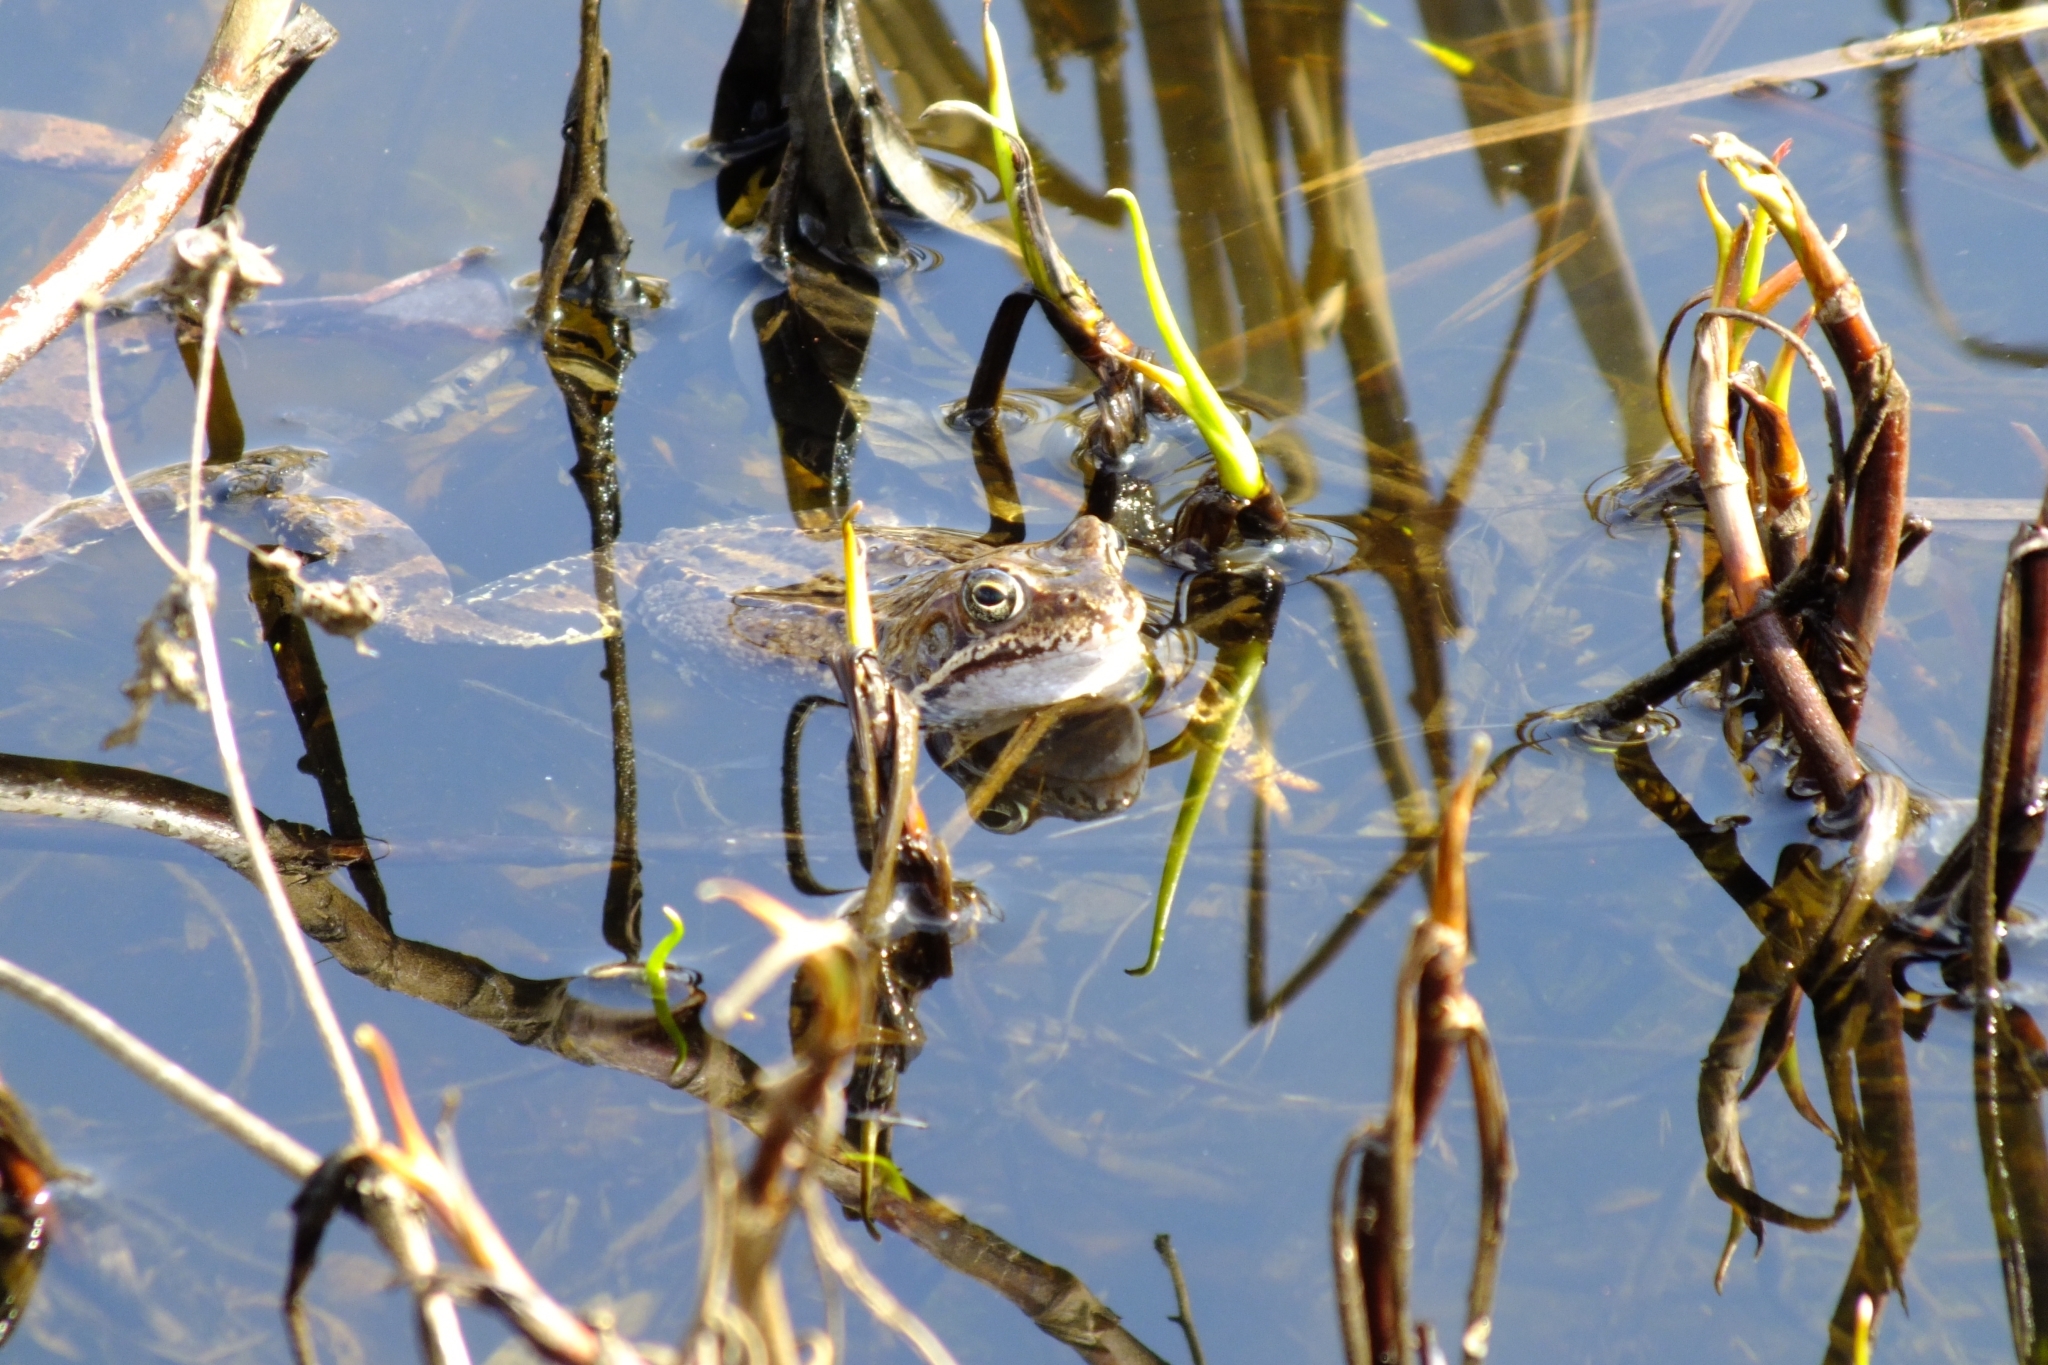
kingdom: Animalia
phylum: Chordata
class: Amphibia
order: Anura
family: Ranidae
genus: Rana
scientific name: Rana temporaria
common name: Common frog
